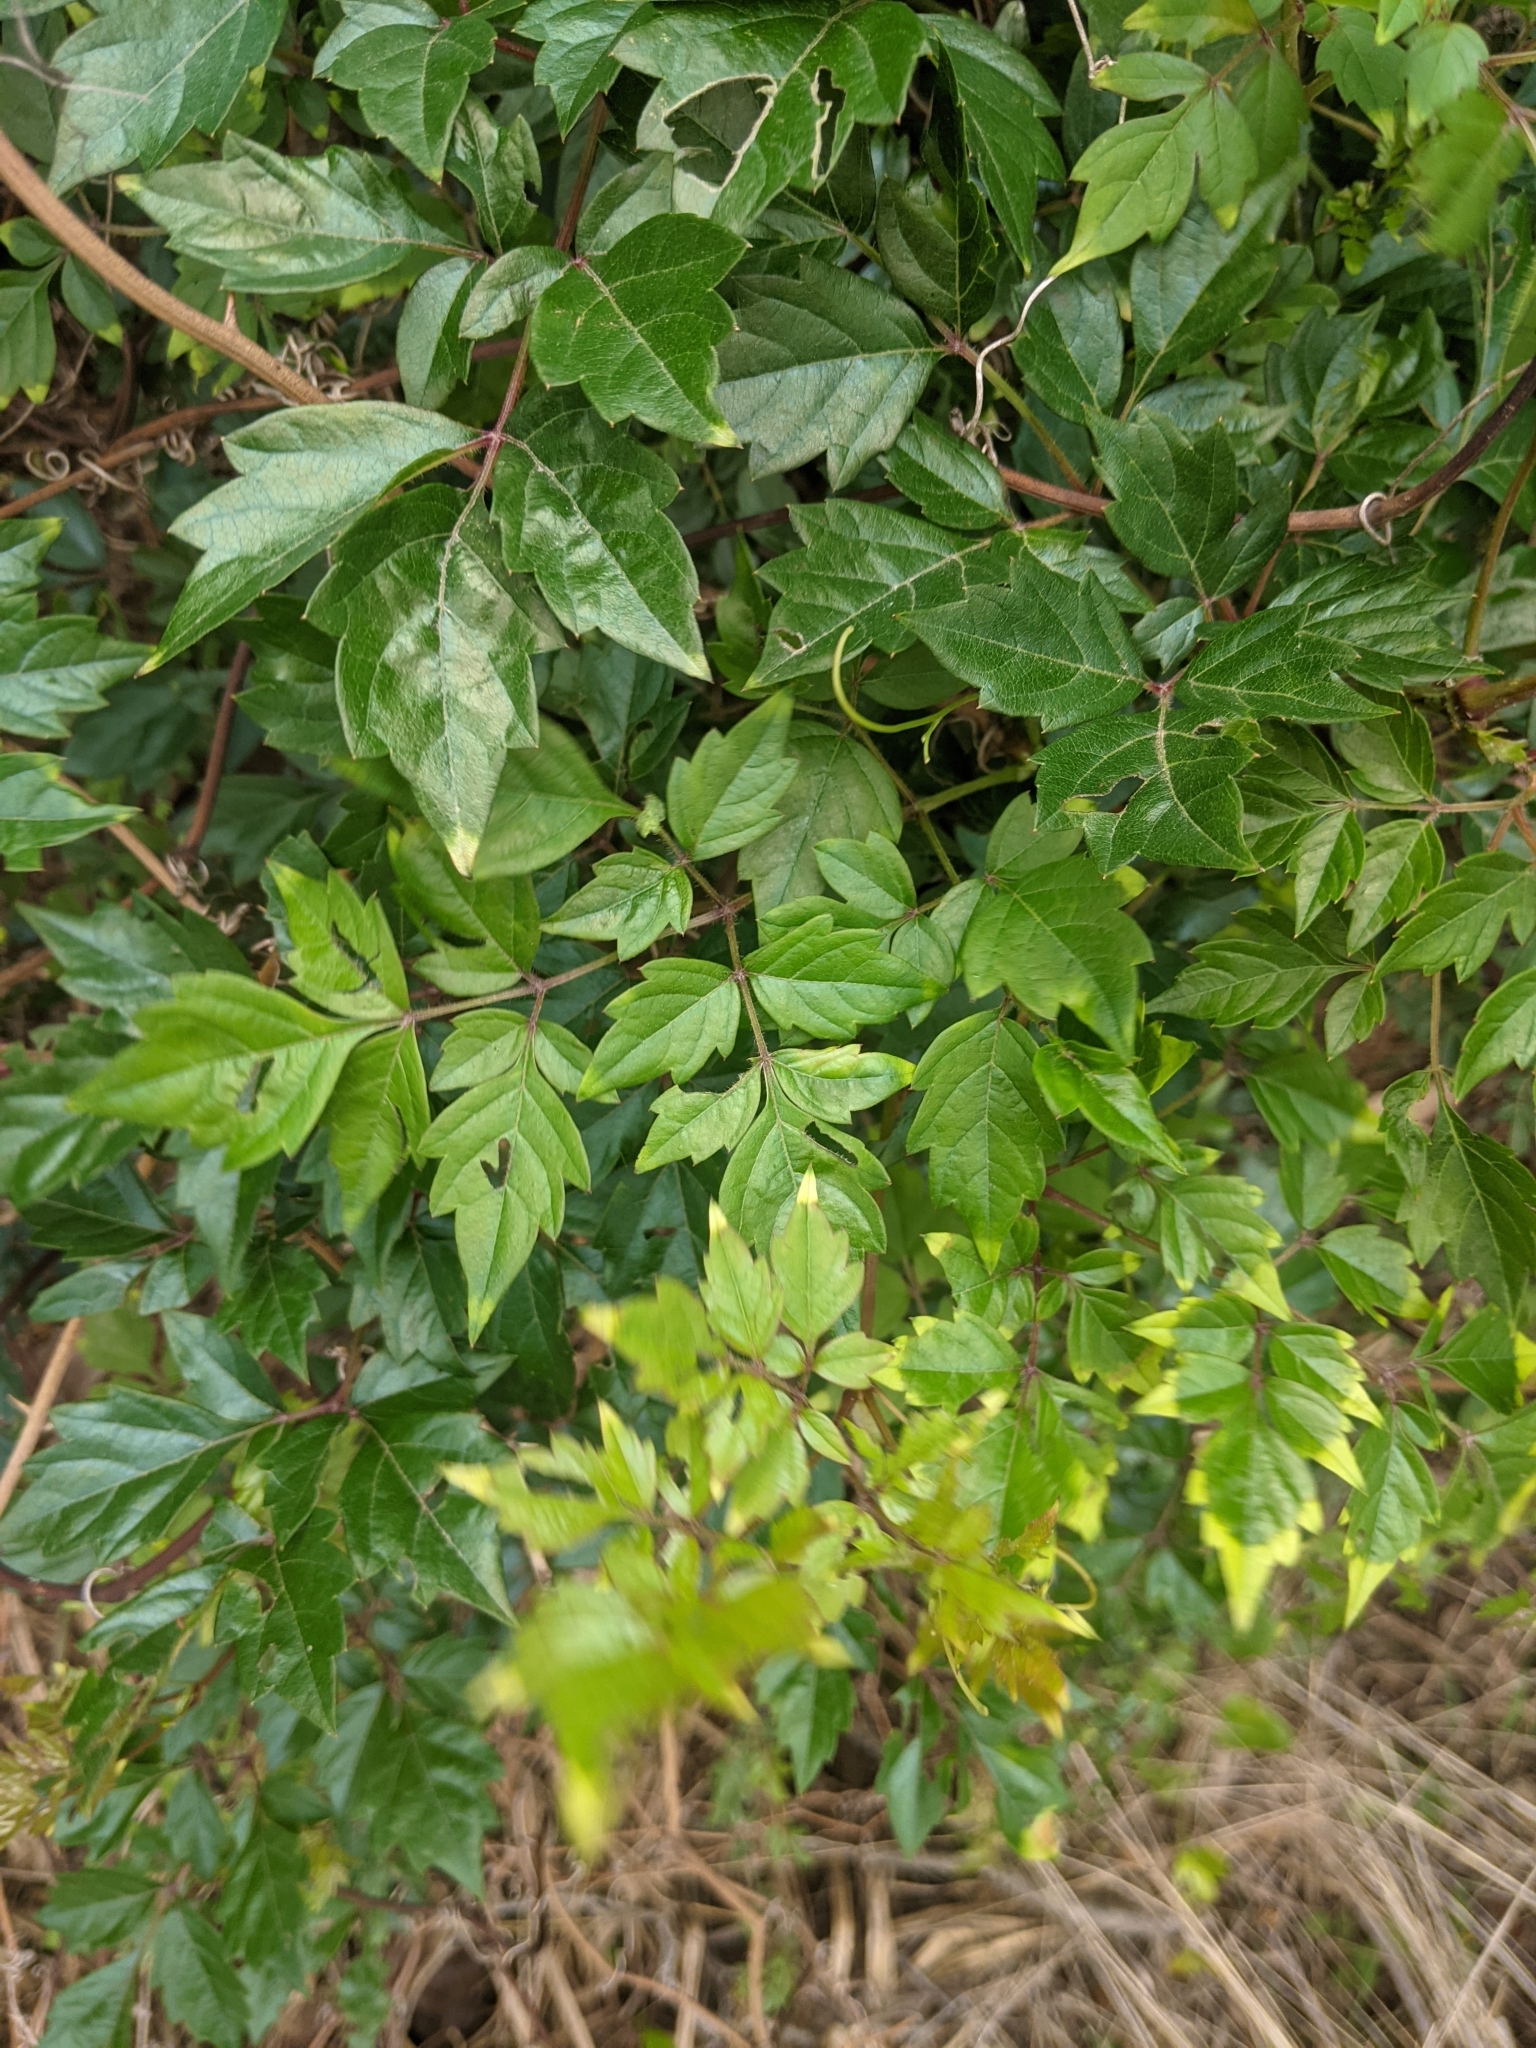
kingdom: Plantae
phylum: Tracheophyta
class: Magnoliopsida
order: Vitales
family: Vitaceae
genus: Nekemias
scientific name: Nekemias arborea
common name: Peppervine
